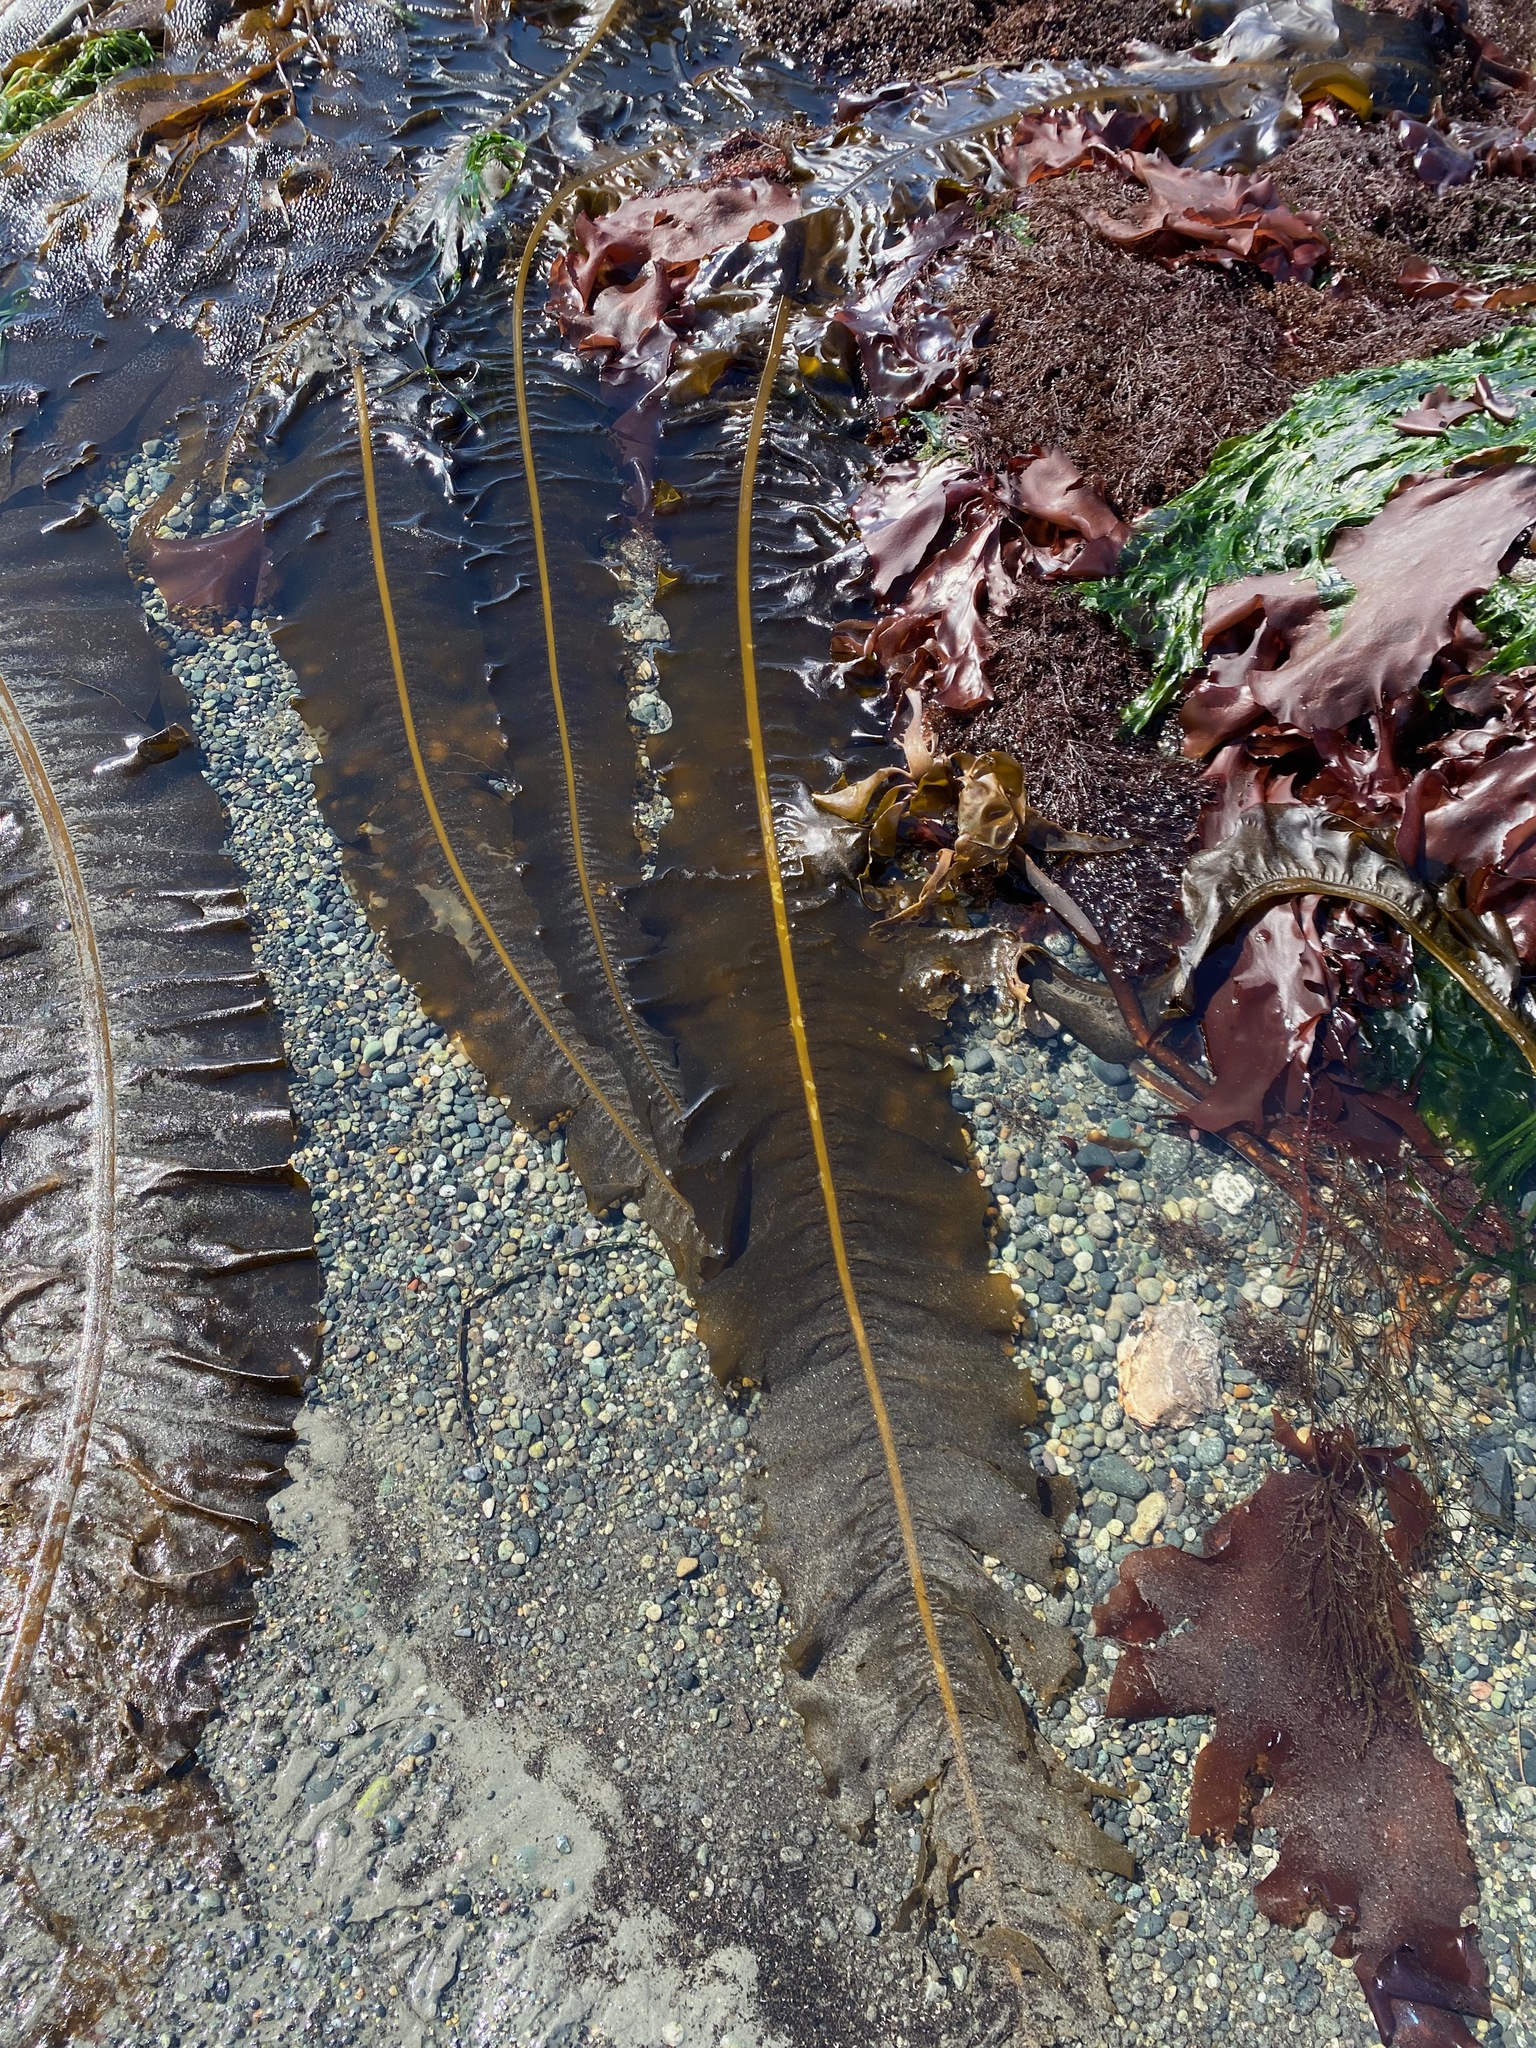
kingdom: Chromista
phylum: Ochrophyta
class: Phaeophyceae
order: Laminariales
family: Alariaceae
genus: Alaria
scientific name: Alaria marginata
